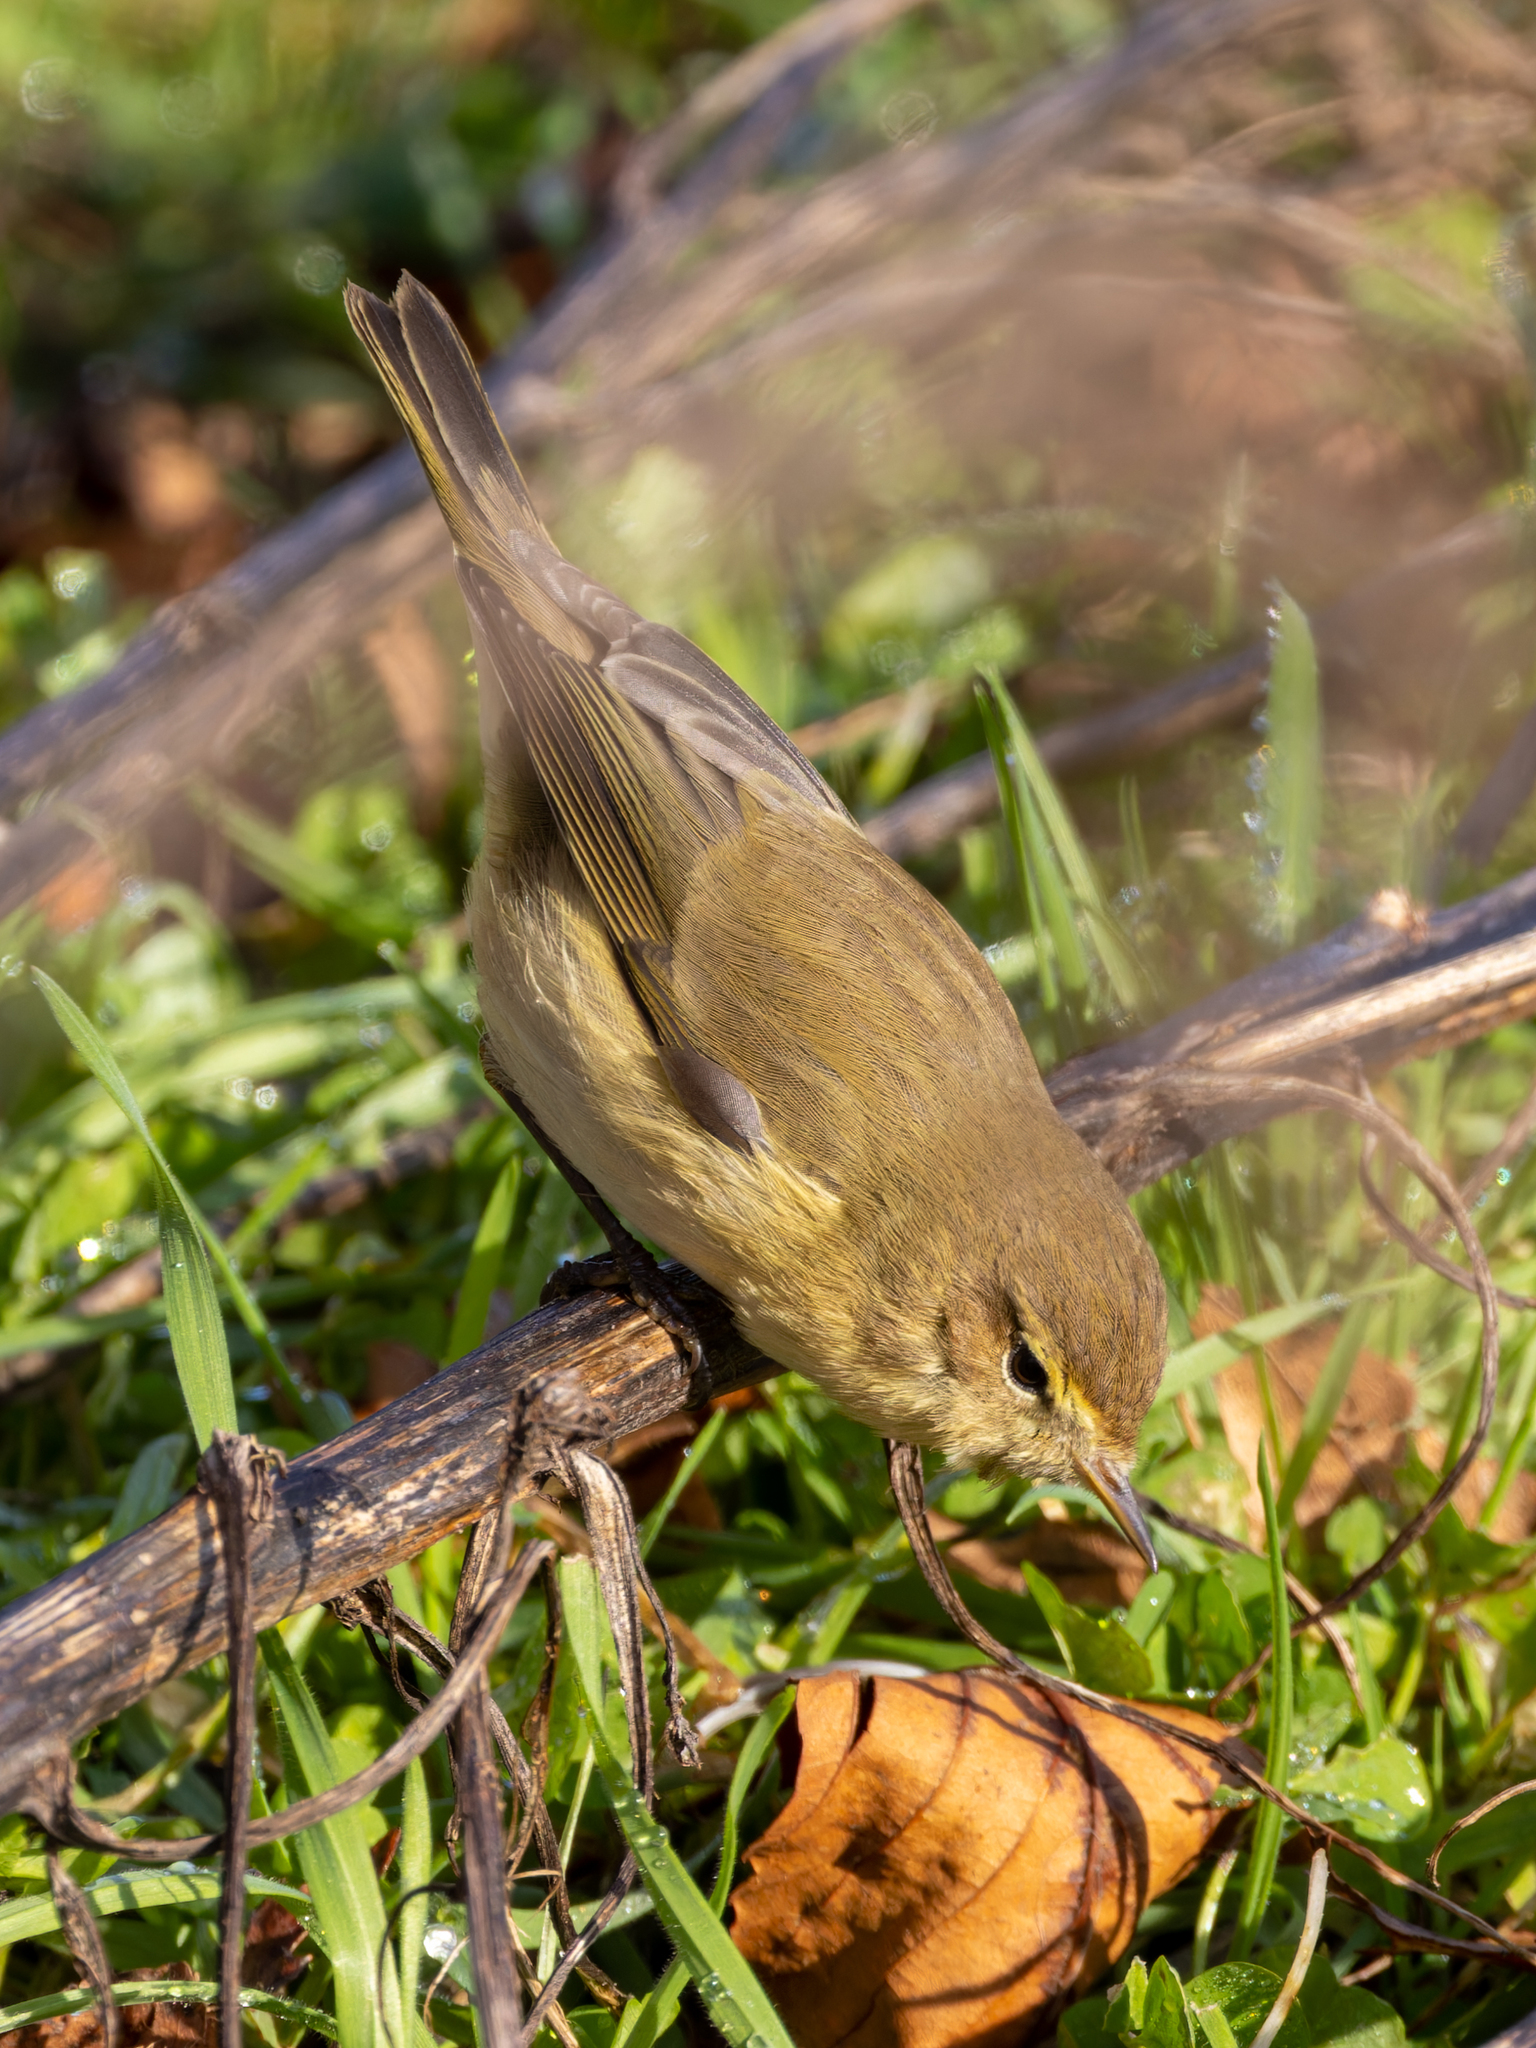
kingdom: Animalia
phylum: Chordata
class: Aves
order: Passeriformes
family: Phylloscopidae
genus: Phylloscopus
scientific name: Phylloscopus collybita
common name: Common chiffchaff
